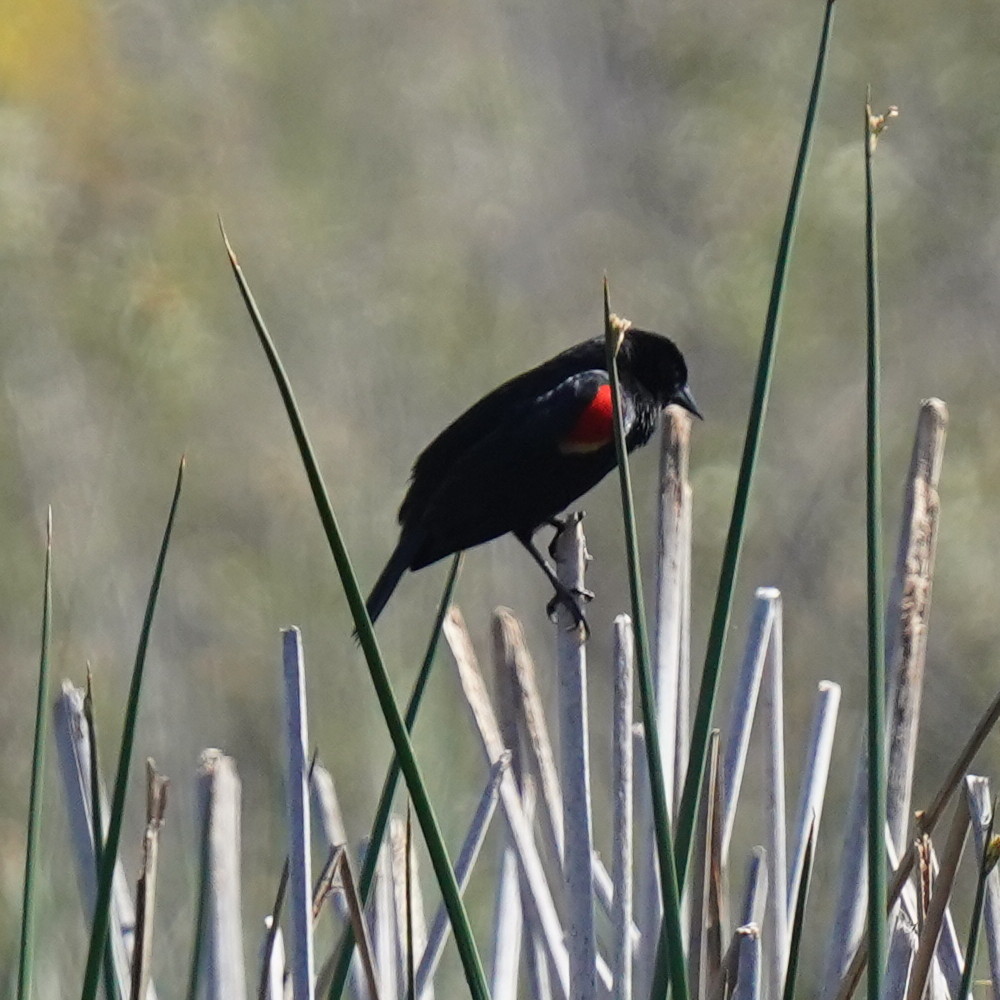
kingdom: Animalia
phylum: Chordata
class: Aves
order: Passeriformes
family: Icteridae
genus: Agelaius
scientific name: Agelaius phoeniceus
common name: Red-winged blackbird
